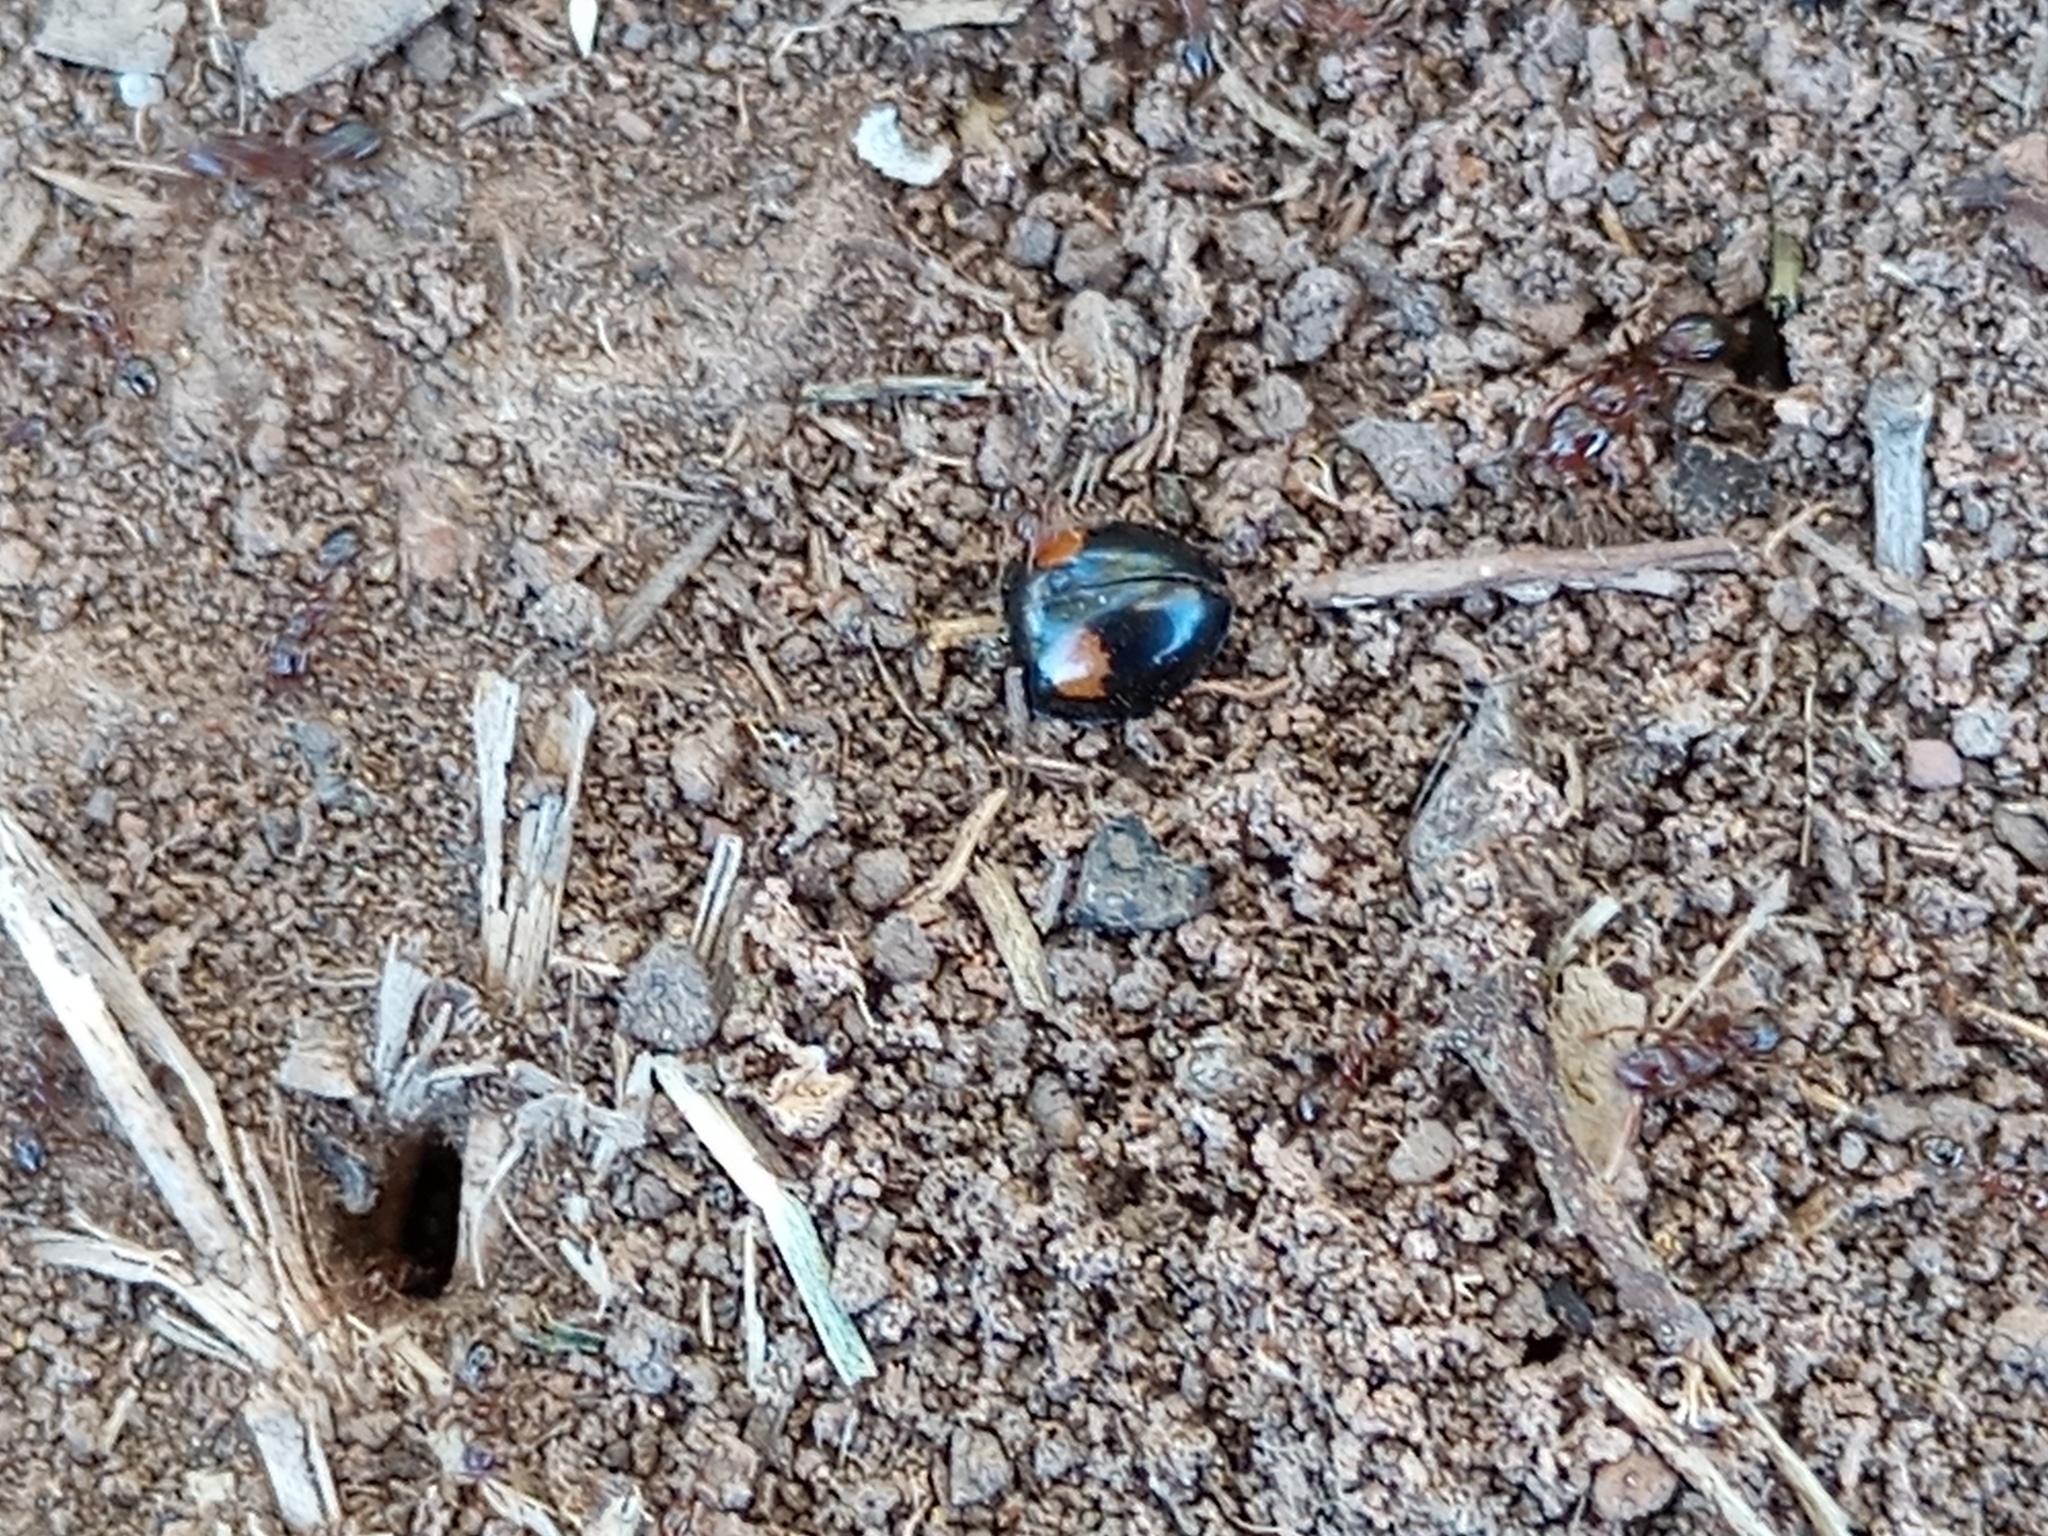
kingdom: Animalia
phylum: Arthropoda
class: Insecta
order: Coleoptera
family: Coccinellidae
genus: Olla
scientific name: Olla v-nigrum
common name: Ashy gray lady beetle
